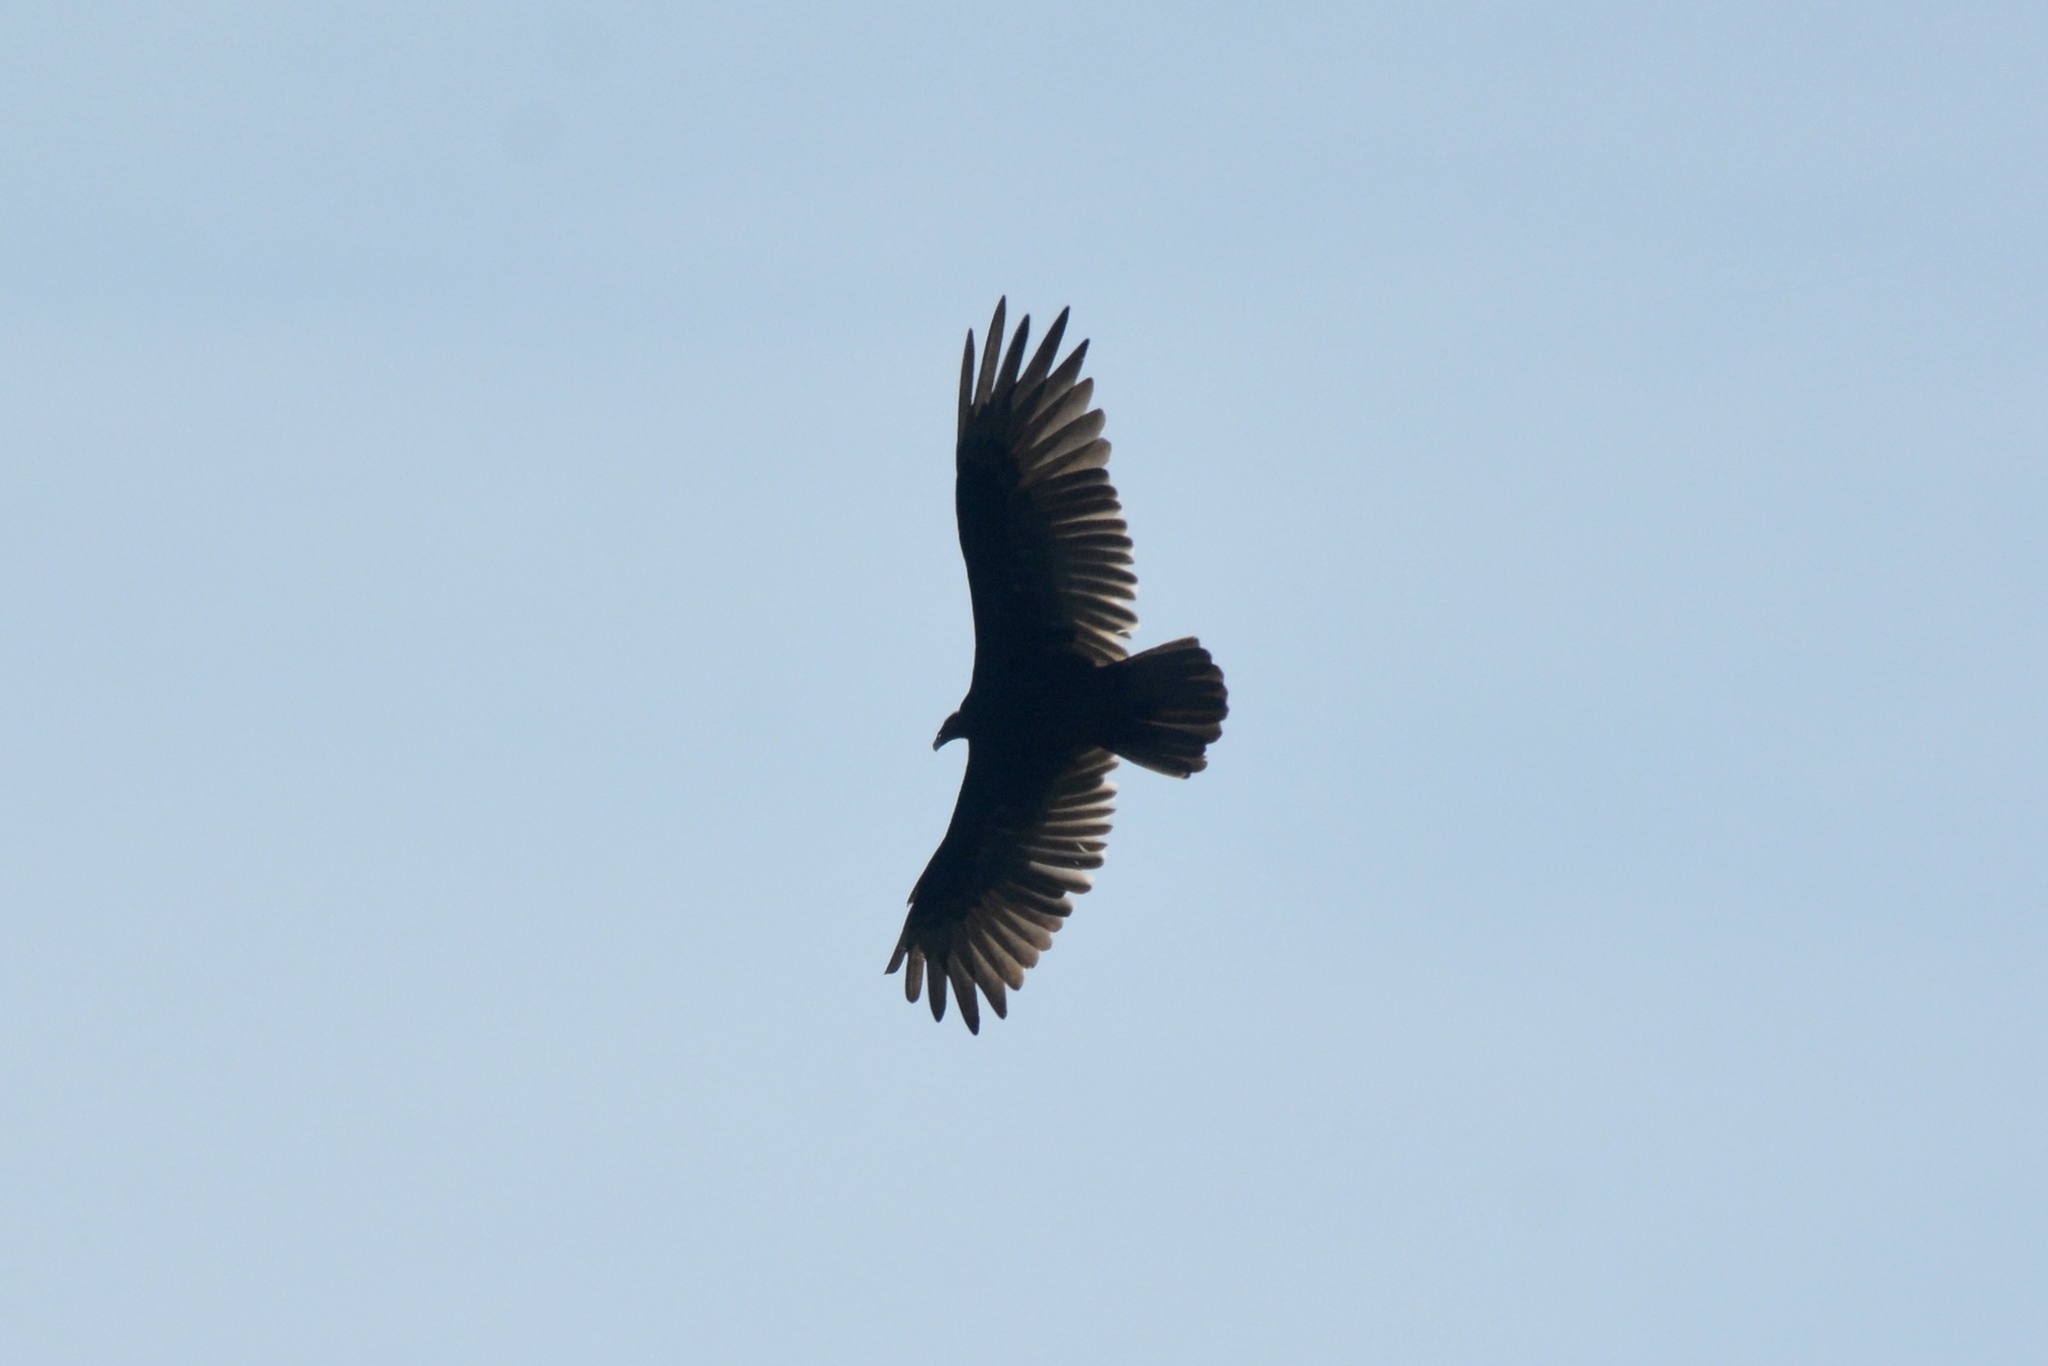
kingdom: Animalia
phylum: Chordata
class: Aves
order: Accipitriformes
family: Cathartidae
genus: Cathartes
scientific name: Cathartes aura
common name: Turkey vulture
